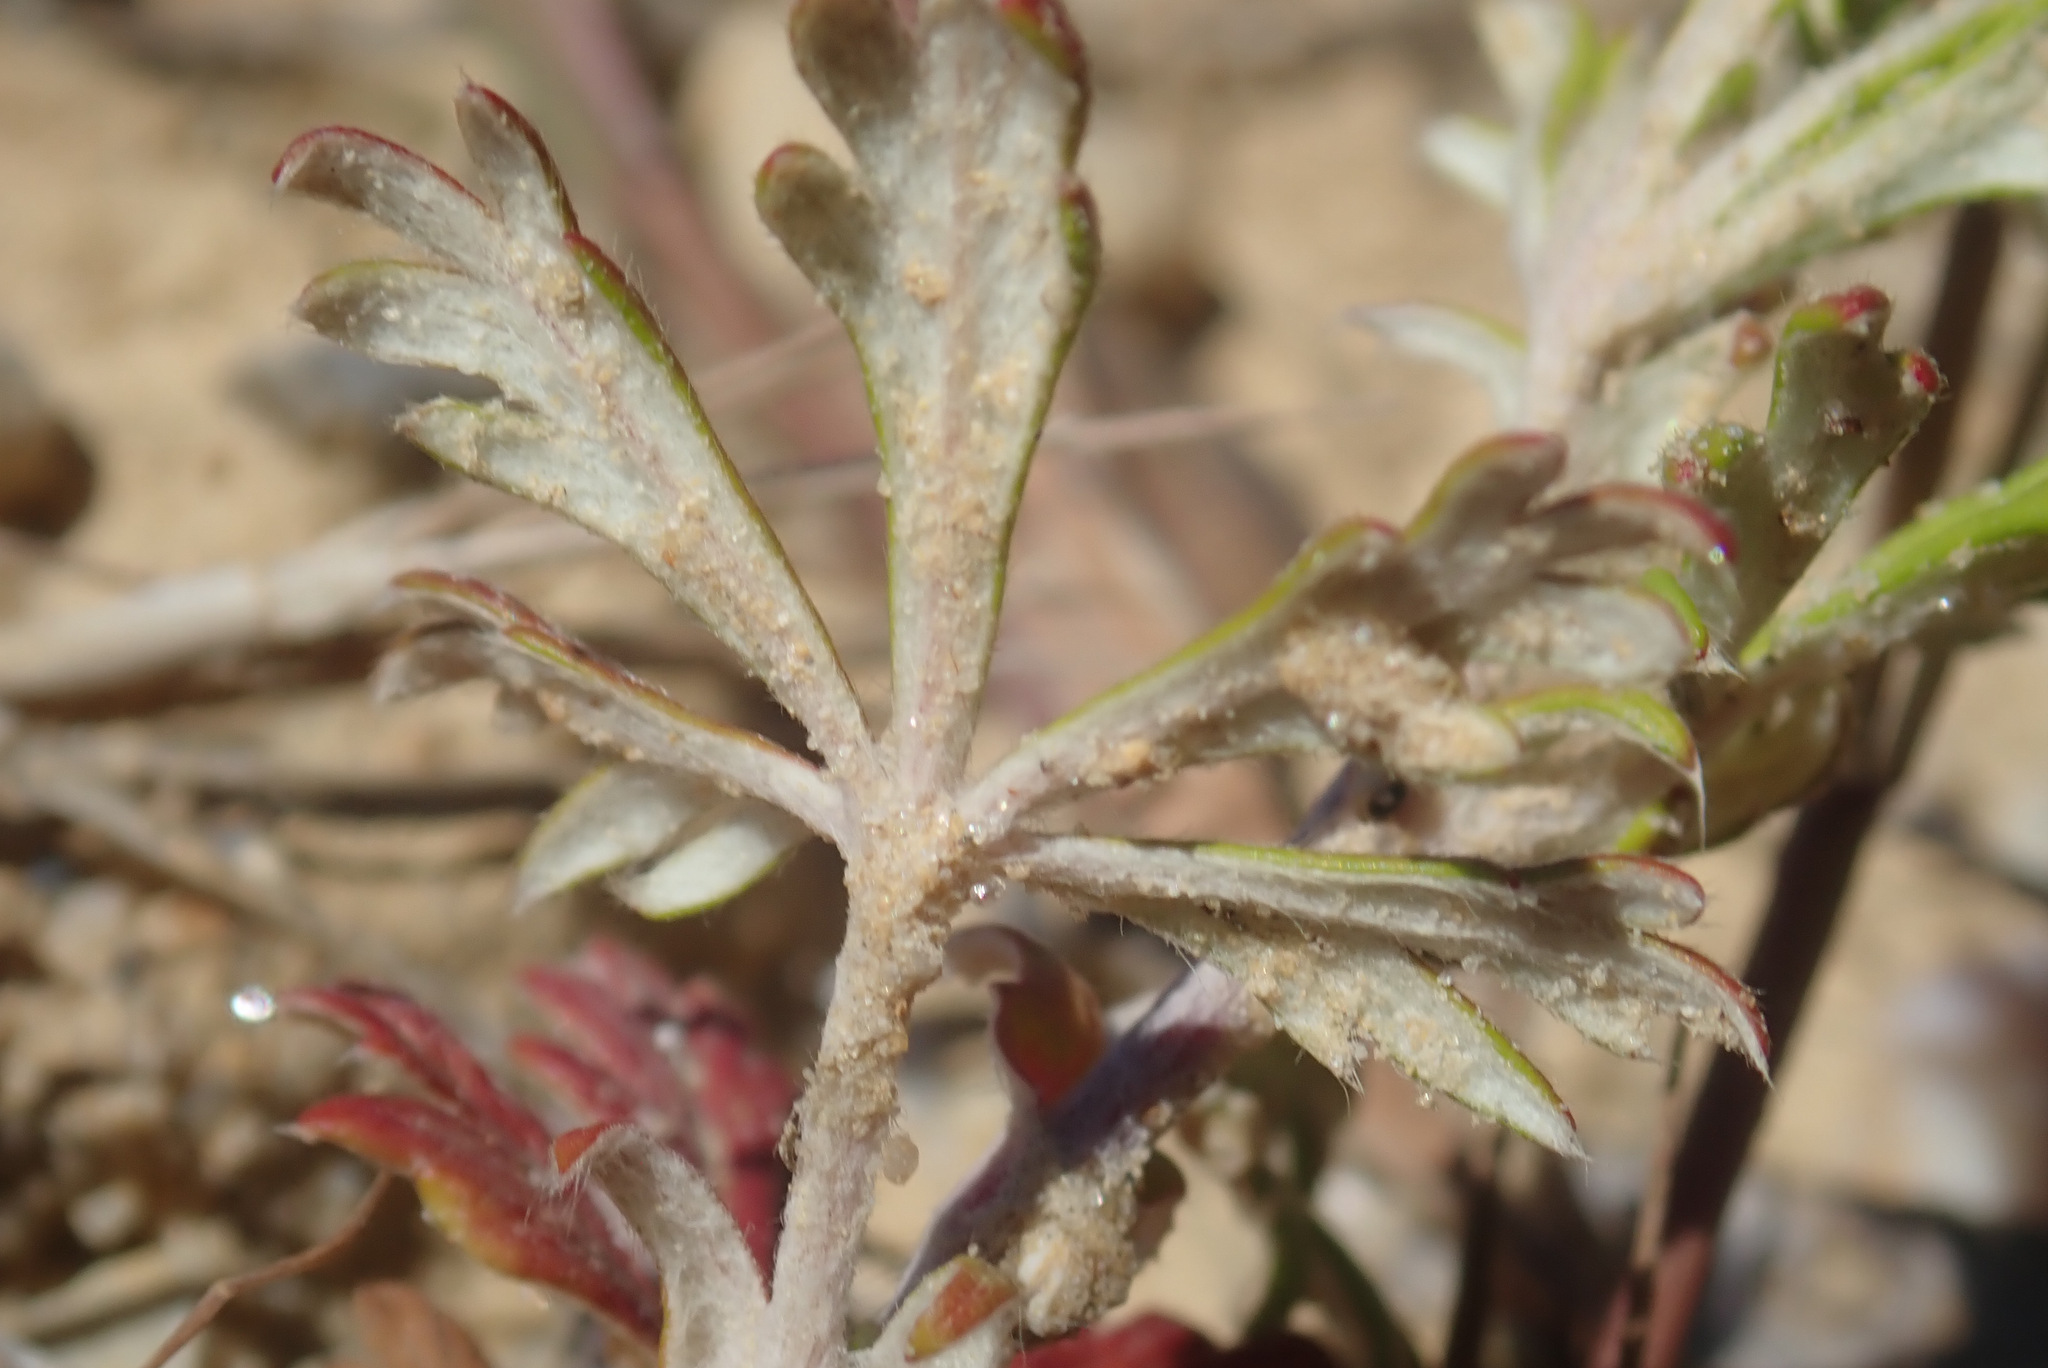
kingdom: Plantae
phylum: Tracheophyta
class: Magnoliopsida
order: Rosales
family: Rosaceae
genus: Potentilla
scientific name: Potentilla argentea
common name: Hoary cinquefoil
